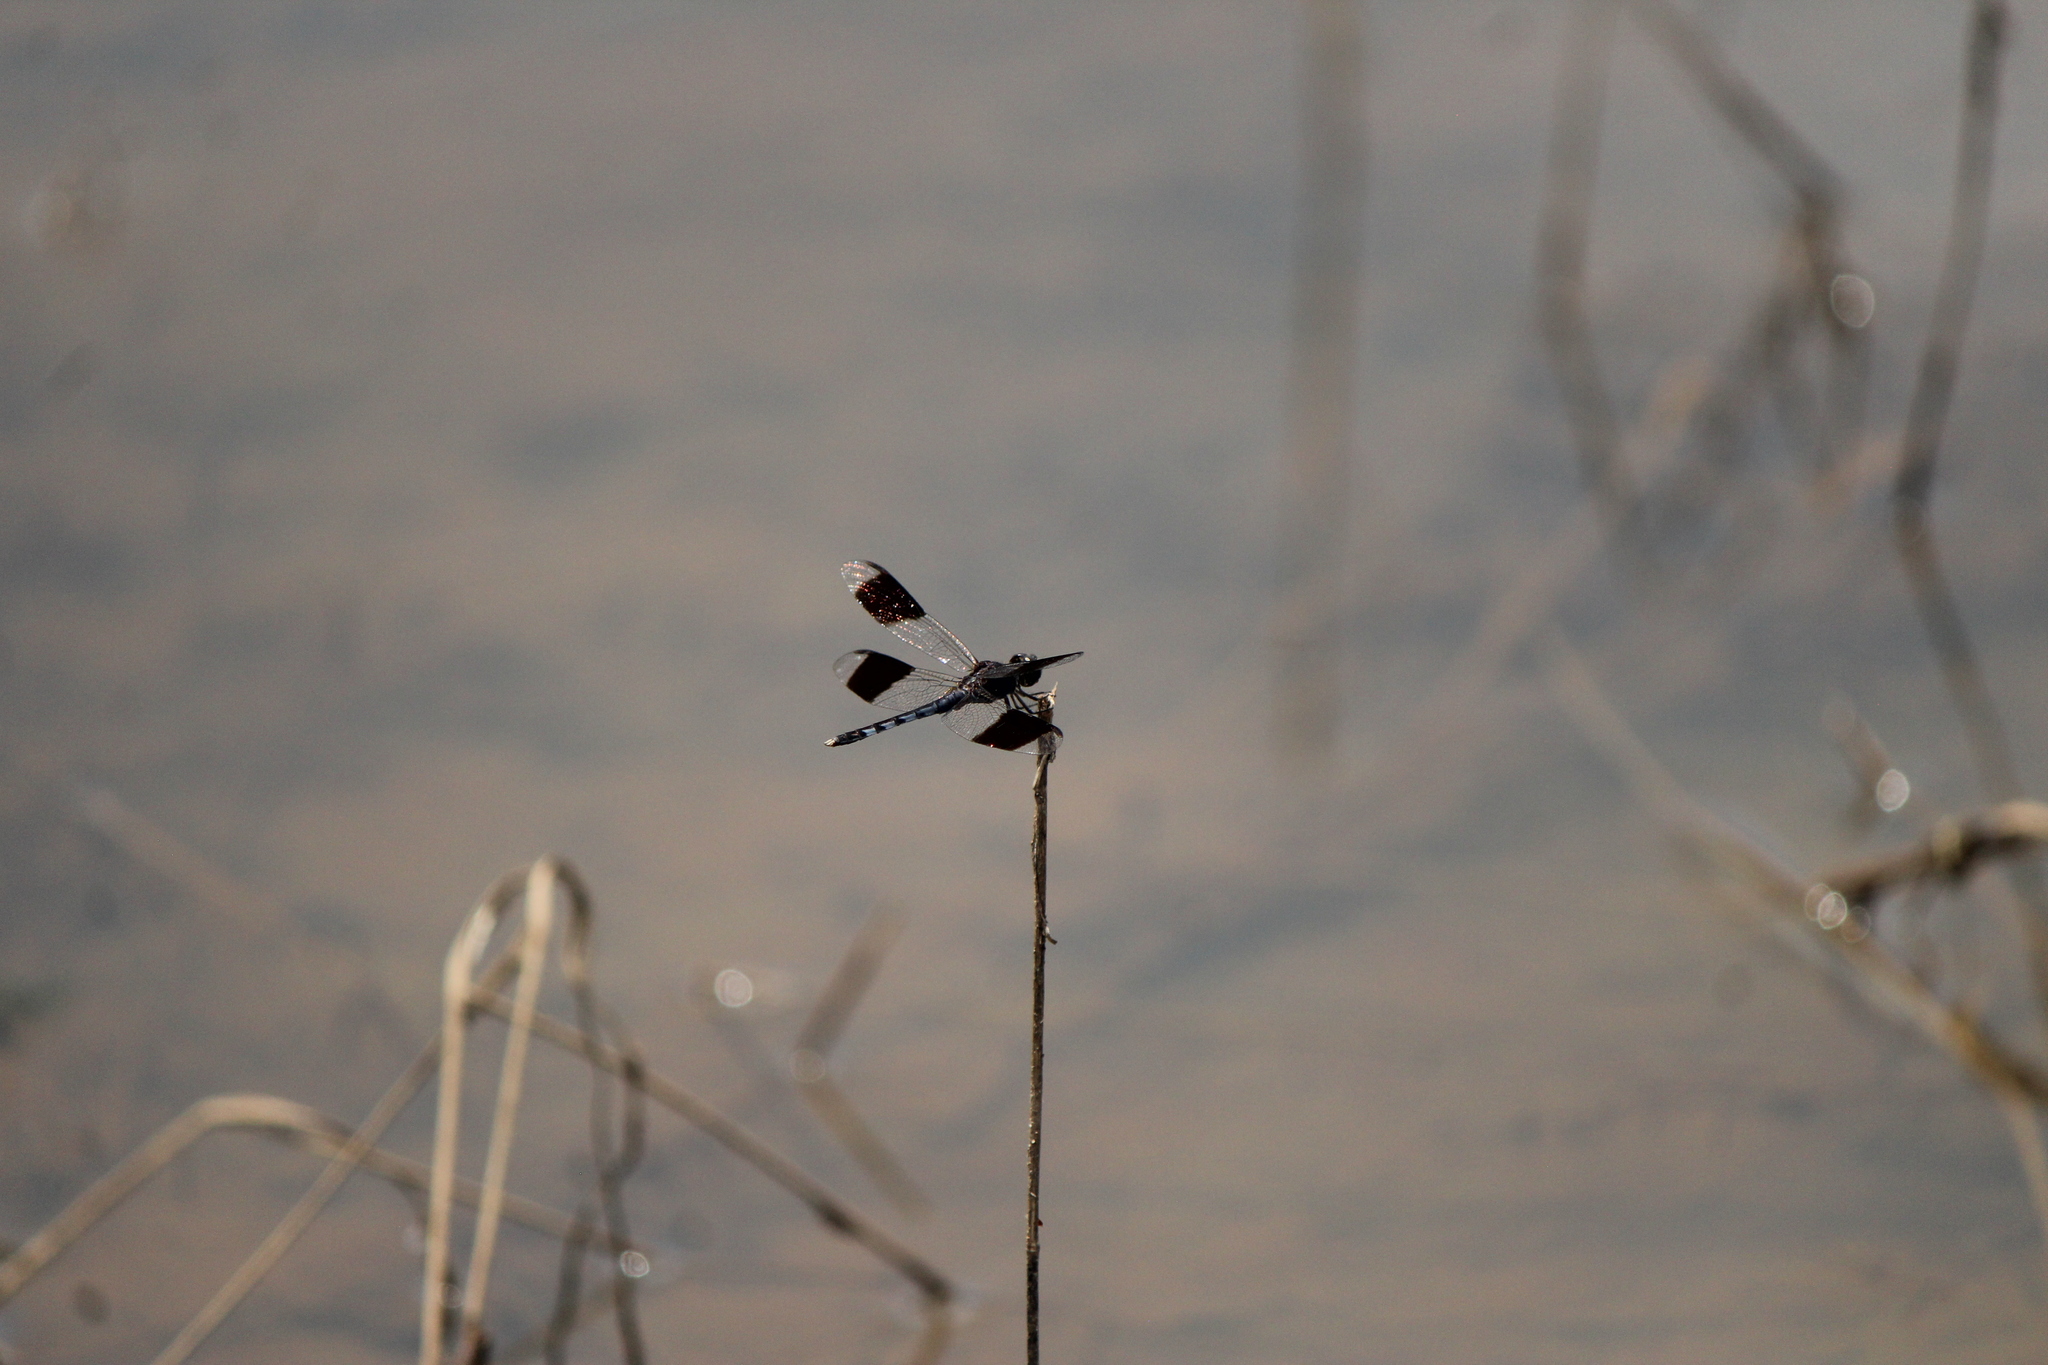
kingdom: Animalia
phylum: Arthropoda
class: Insecta
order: Odonata
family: Libellulidae
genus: Erythrodiplax
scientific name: Erythrodiplax umbrata
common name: Band-winged dragonlet
